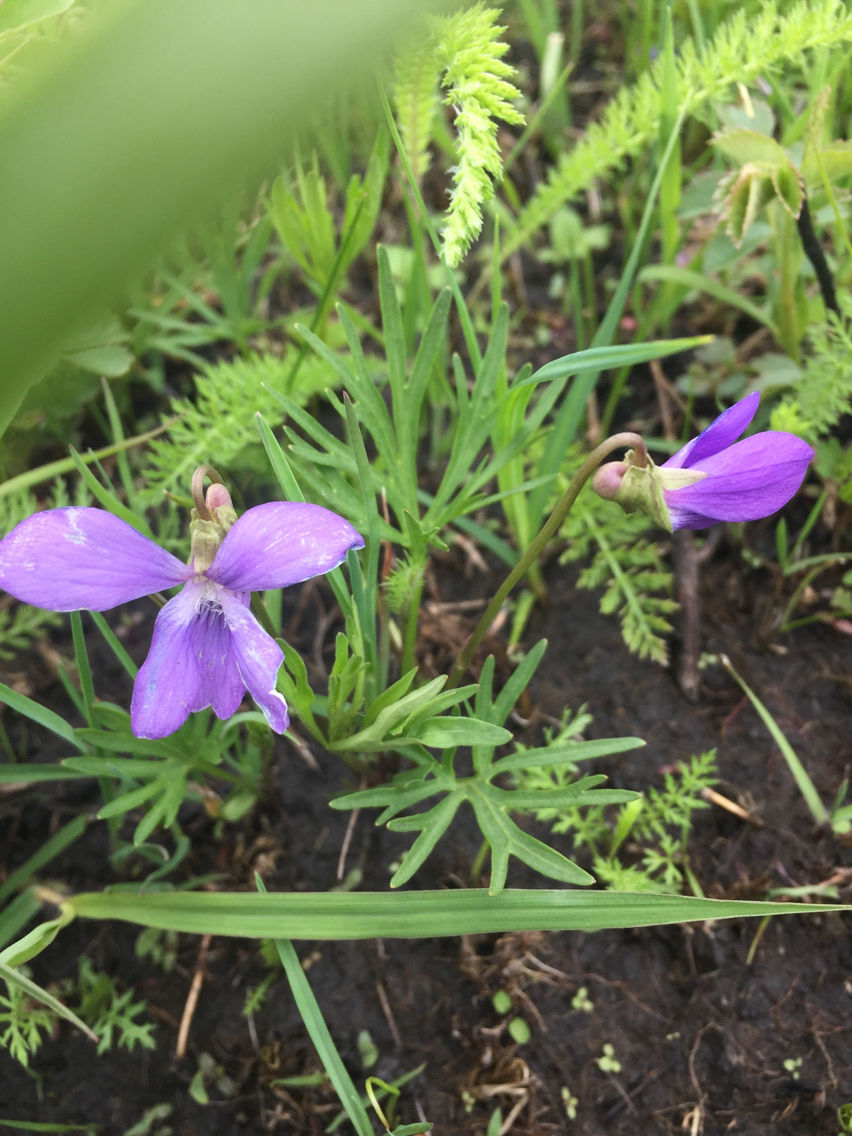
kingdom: Plantae
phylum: Tracheophyta
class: Magnoliopsida
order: Malpighiales
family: Violaceae
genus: Viola
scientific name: Viola pedatifida
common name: Prairie violet
